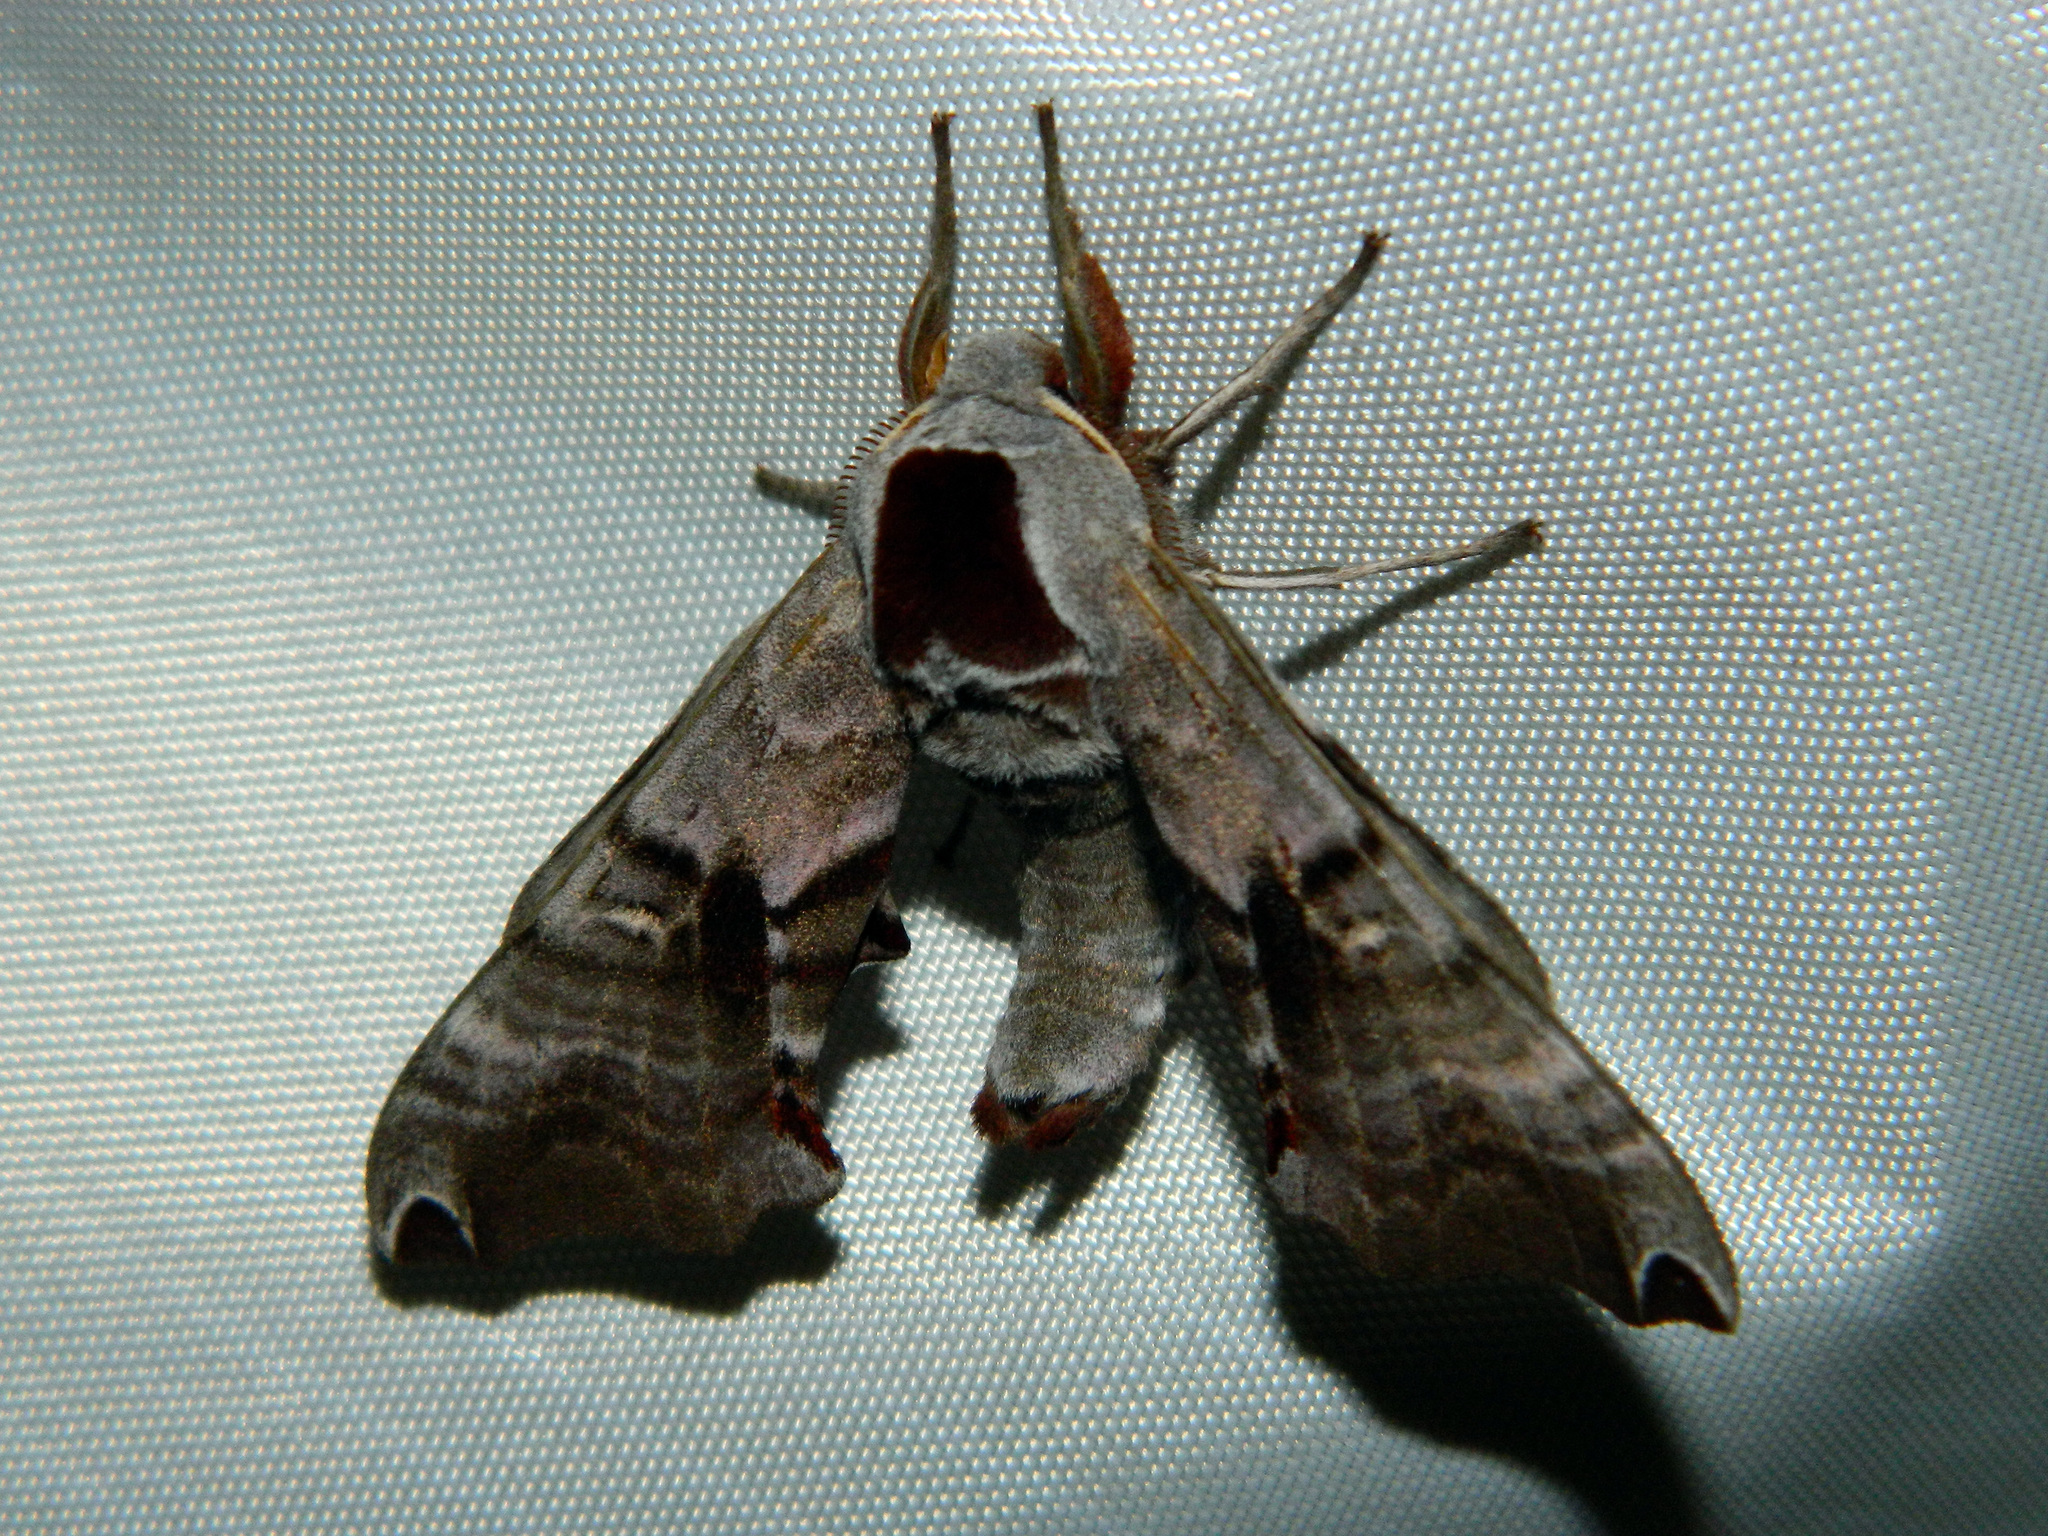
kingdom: Animalia
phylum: Arthropoda
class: Insecta
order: Lepidoptera
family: Sphingidae
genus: Smerinthus
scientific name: Smerinthus jamaicensis
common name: Twin spotted sphinx
